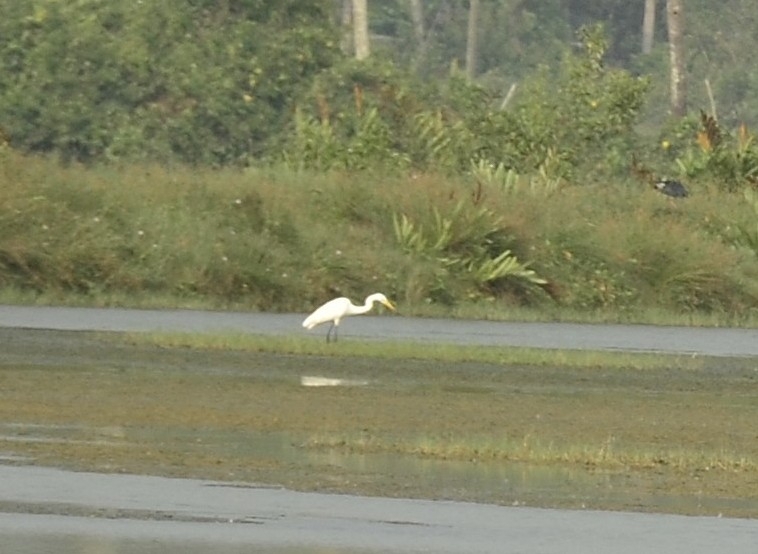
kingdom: Animalia
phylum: Chordata
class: Aves
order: Pelecaniformes
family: Ardeidae
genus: Ardea
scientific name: Ardea alba
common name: Great egret
